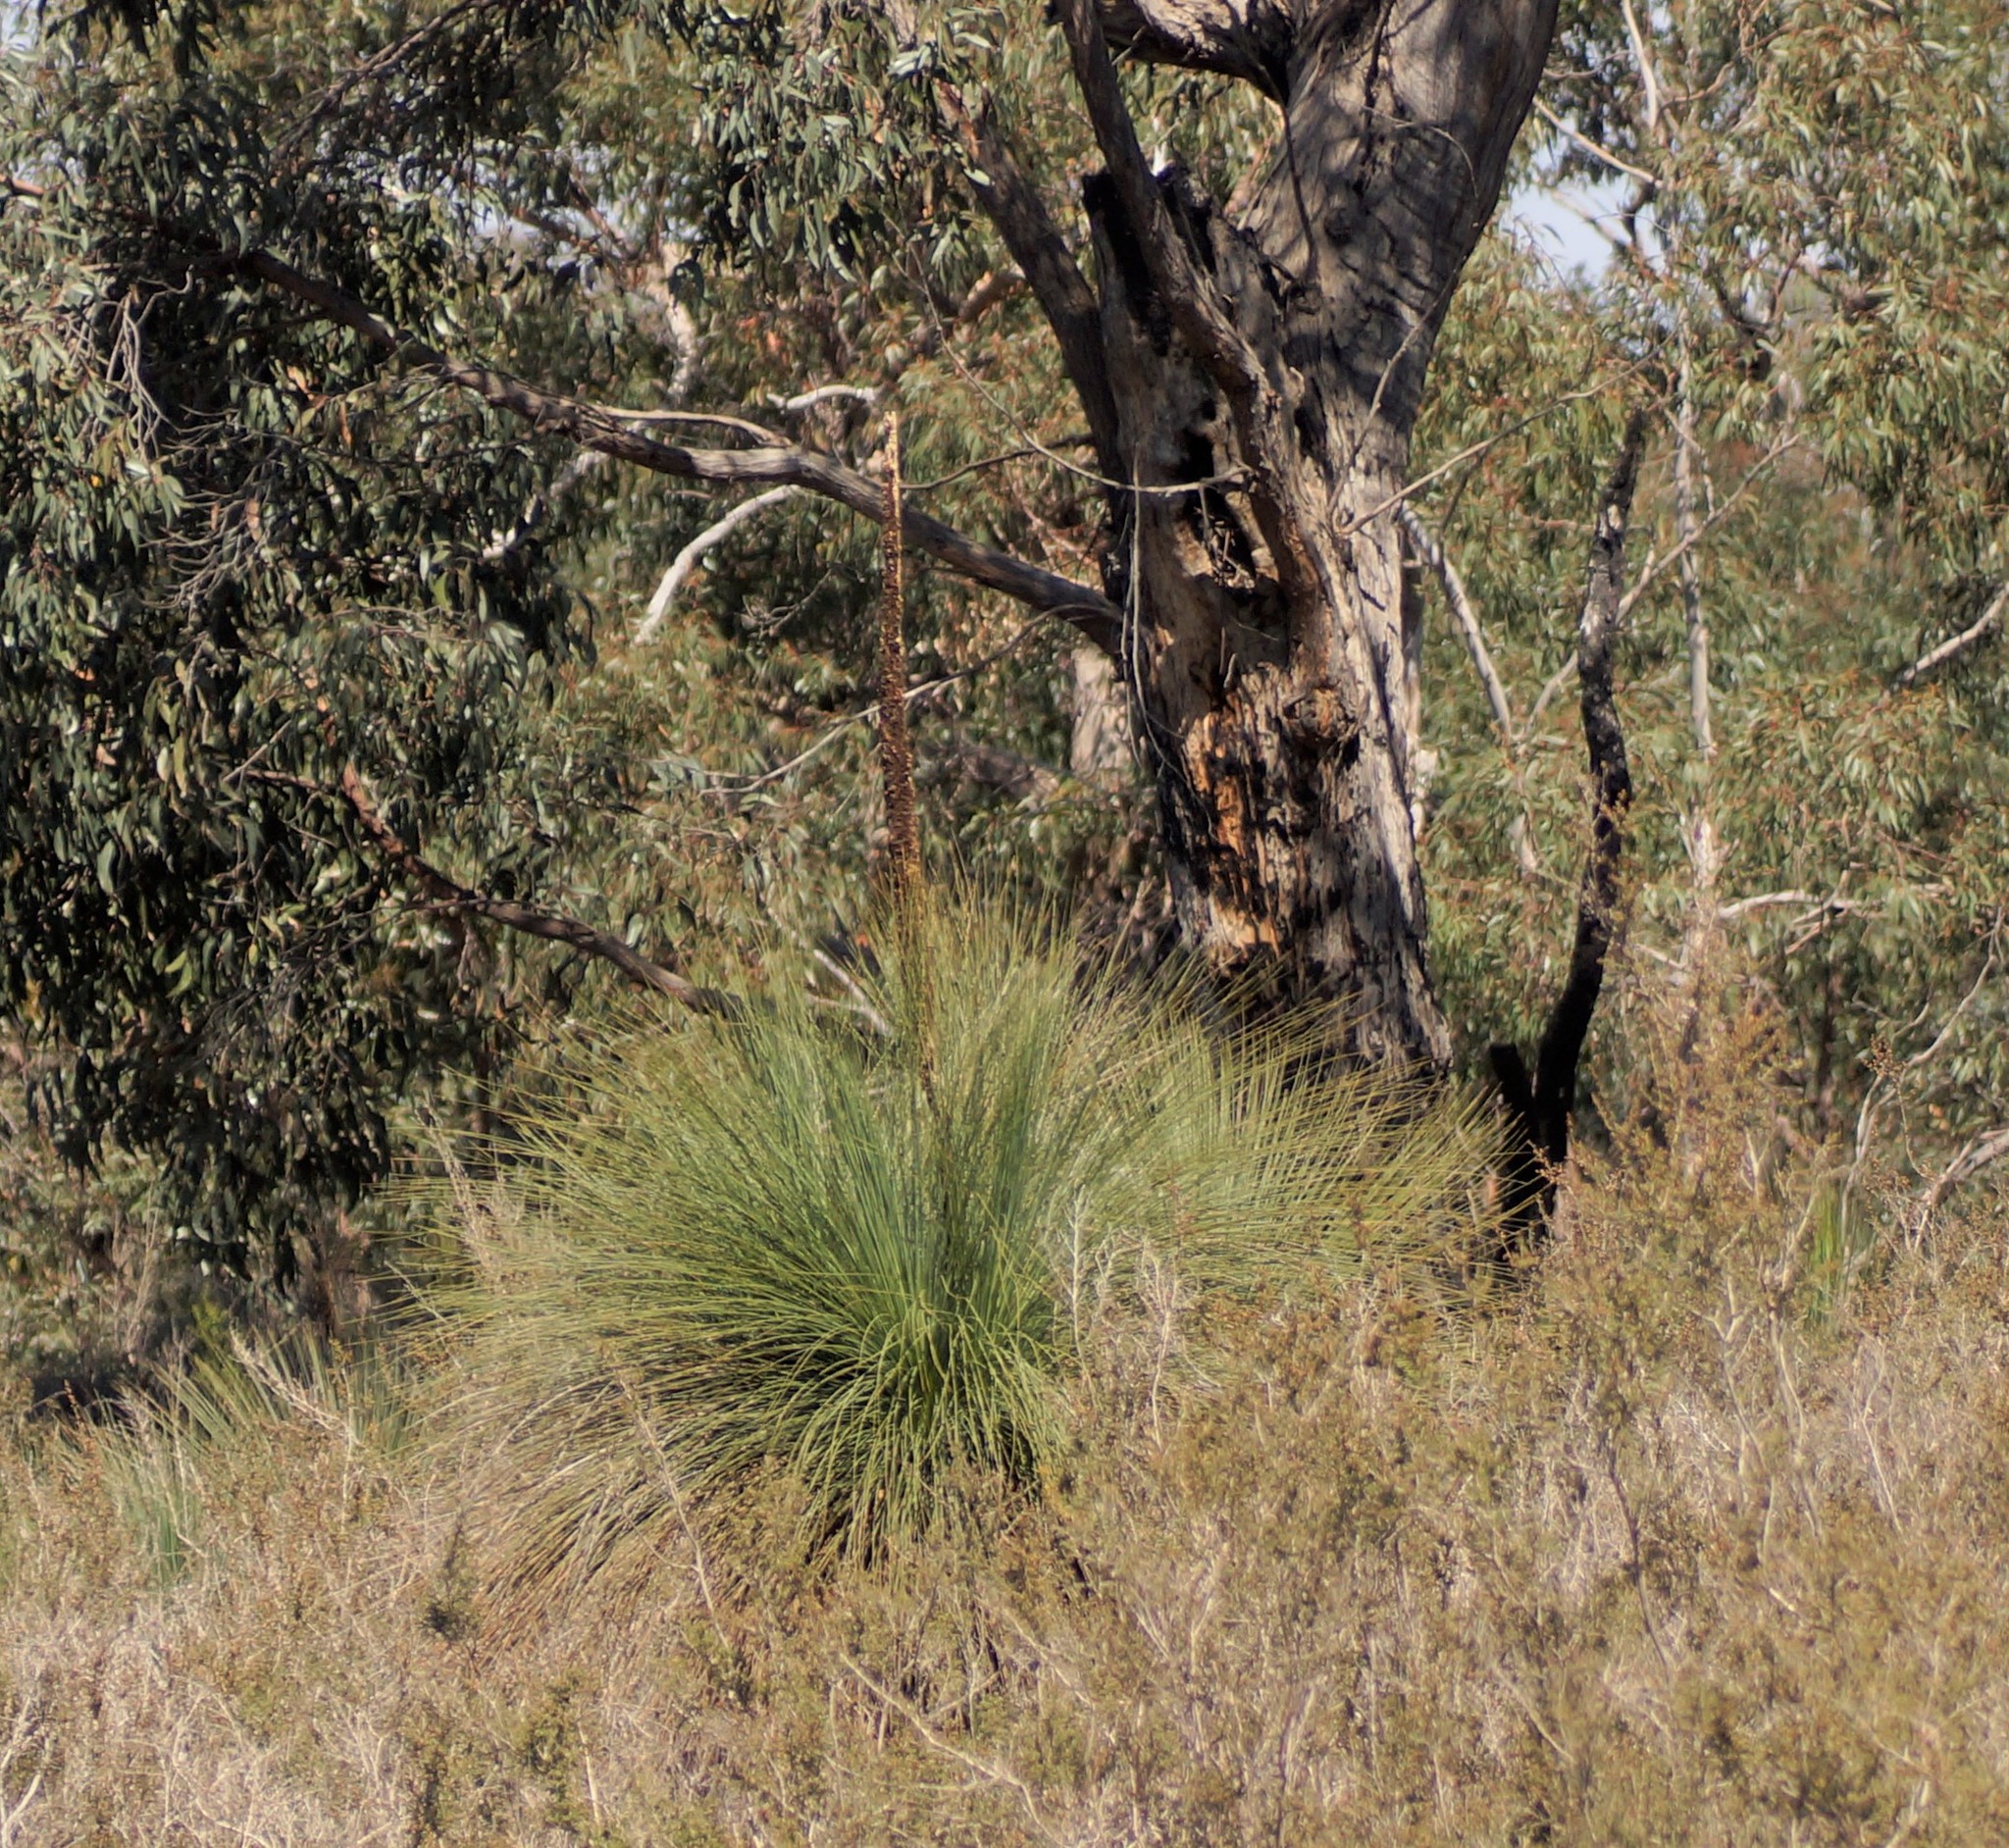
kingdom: Plantae
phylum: Tracheophyta
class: Liliopsida
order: Asparagales
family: Asphodelaceae
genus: Xanthorrhoea
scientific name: Xanthorrhoea australis
